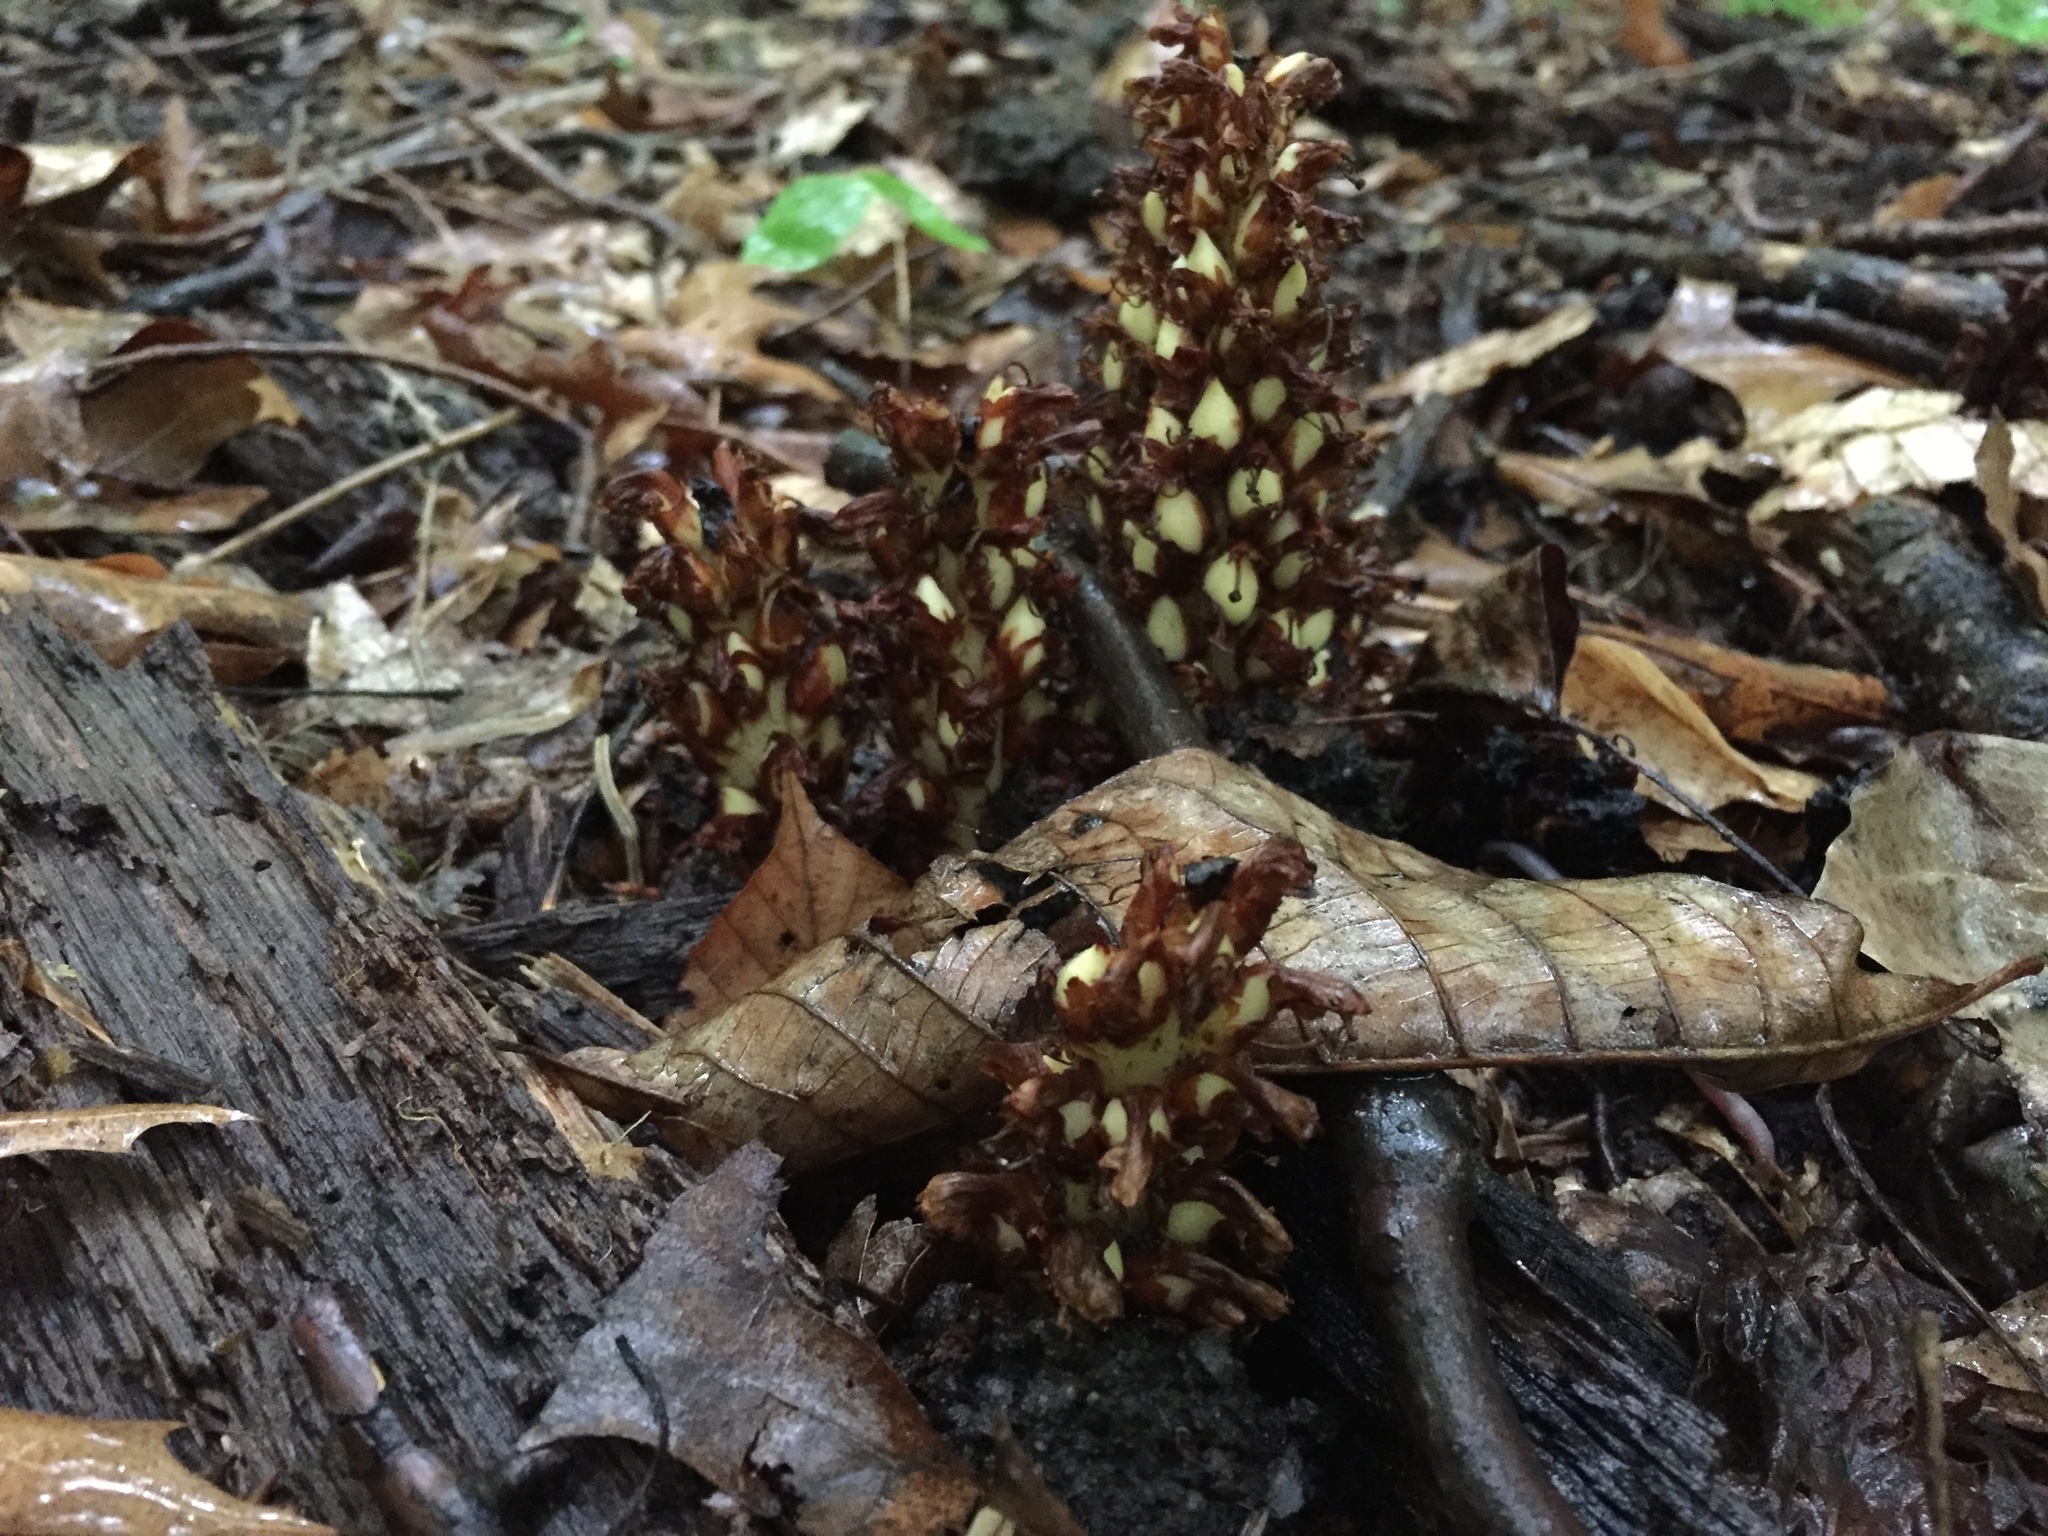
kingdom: Plantae
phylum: Tracheophyta
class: Magnoliopsida
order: Lamiales
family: Orobanchaceae
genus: Conopholis
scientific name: Conopholis americana
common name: American cancer-root
